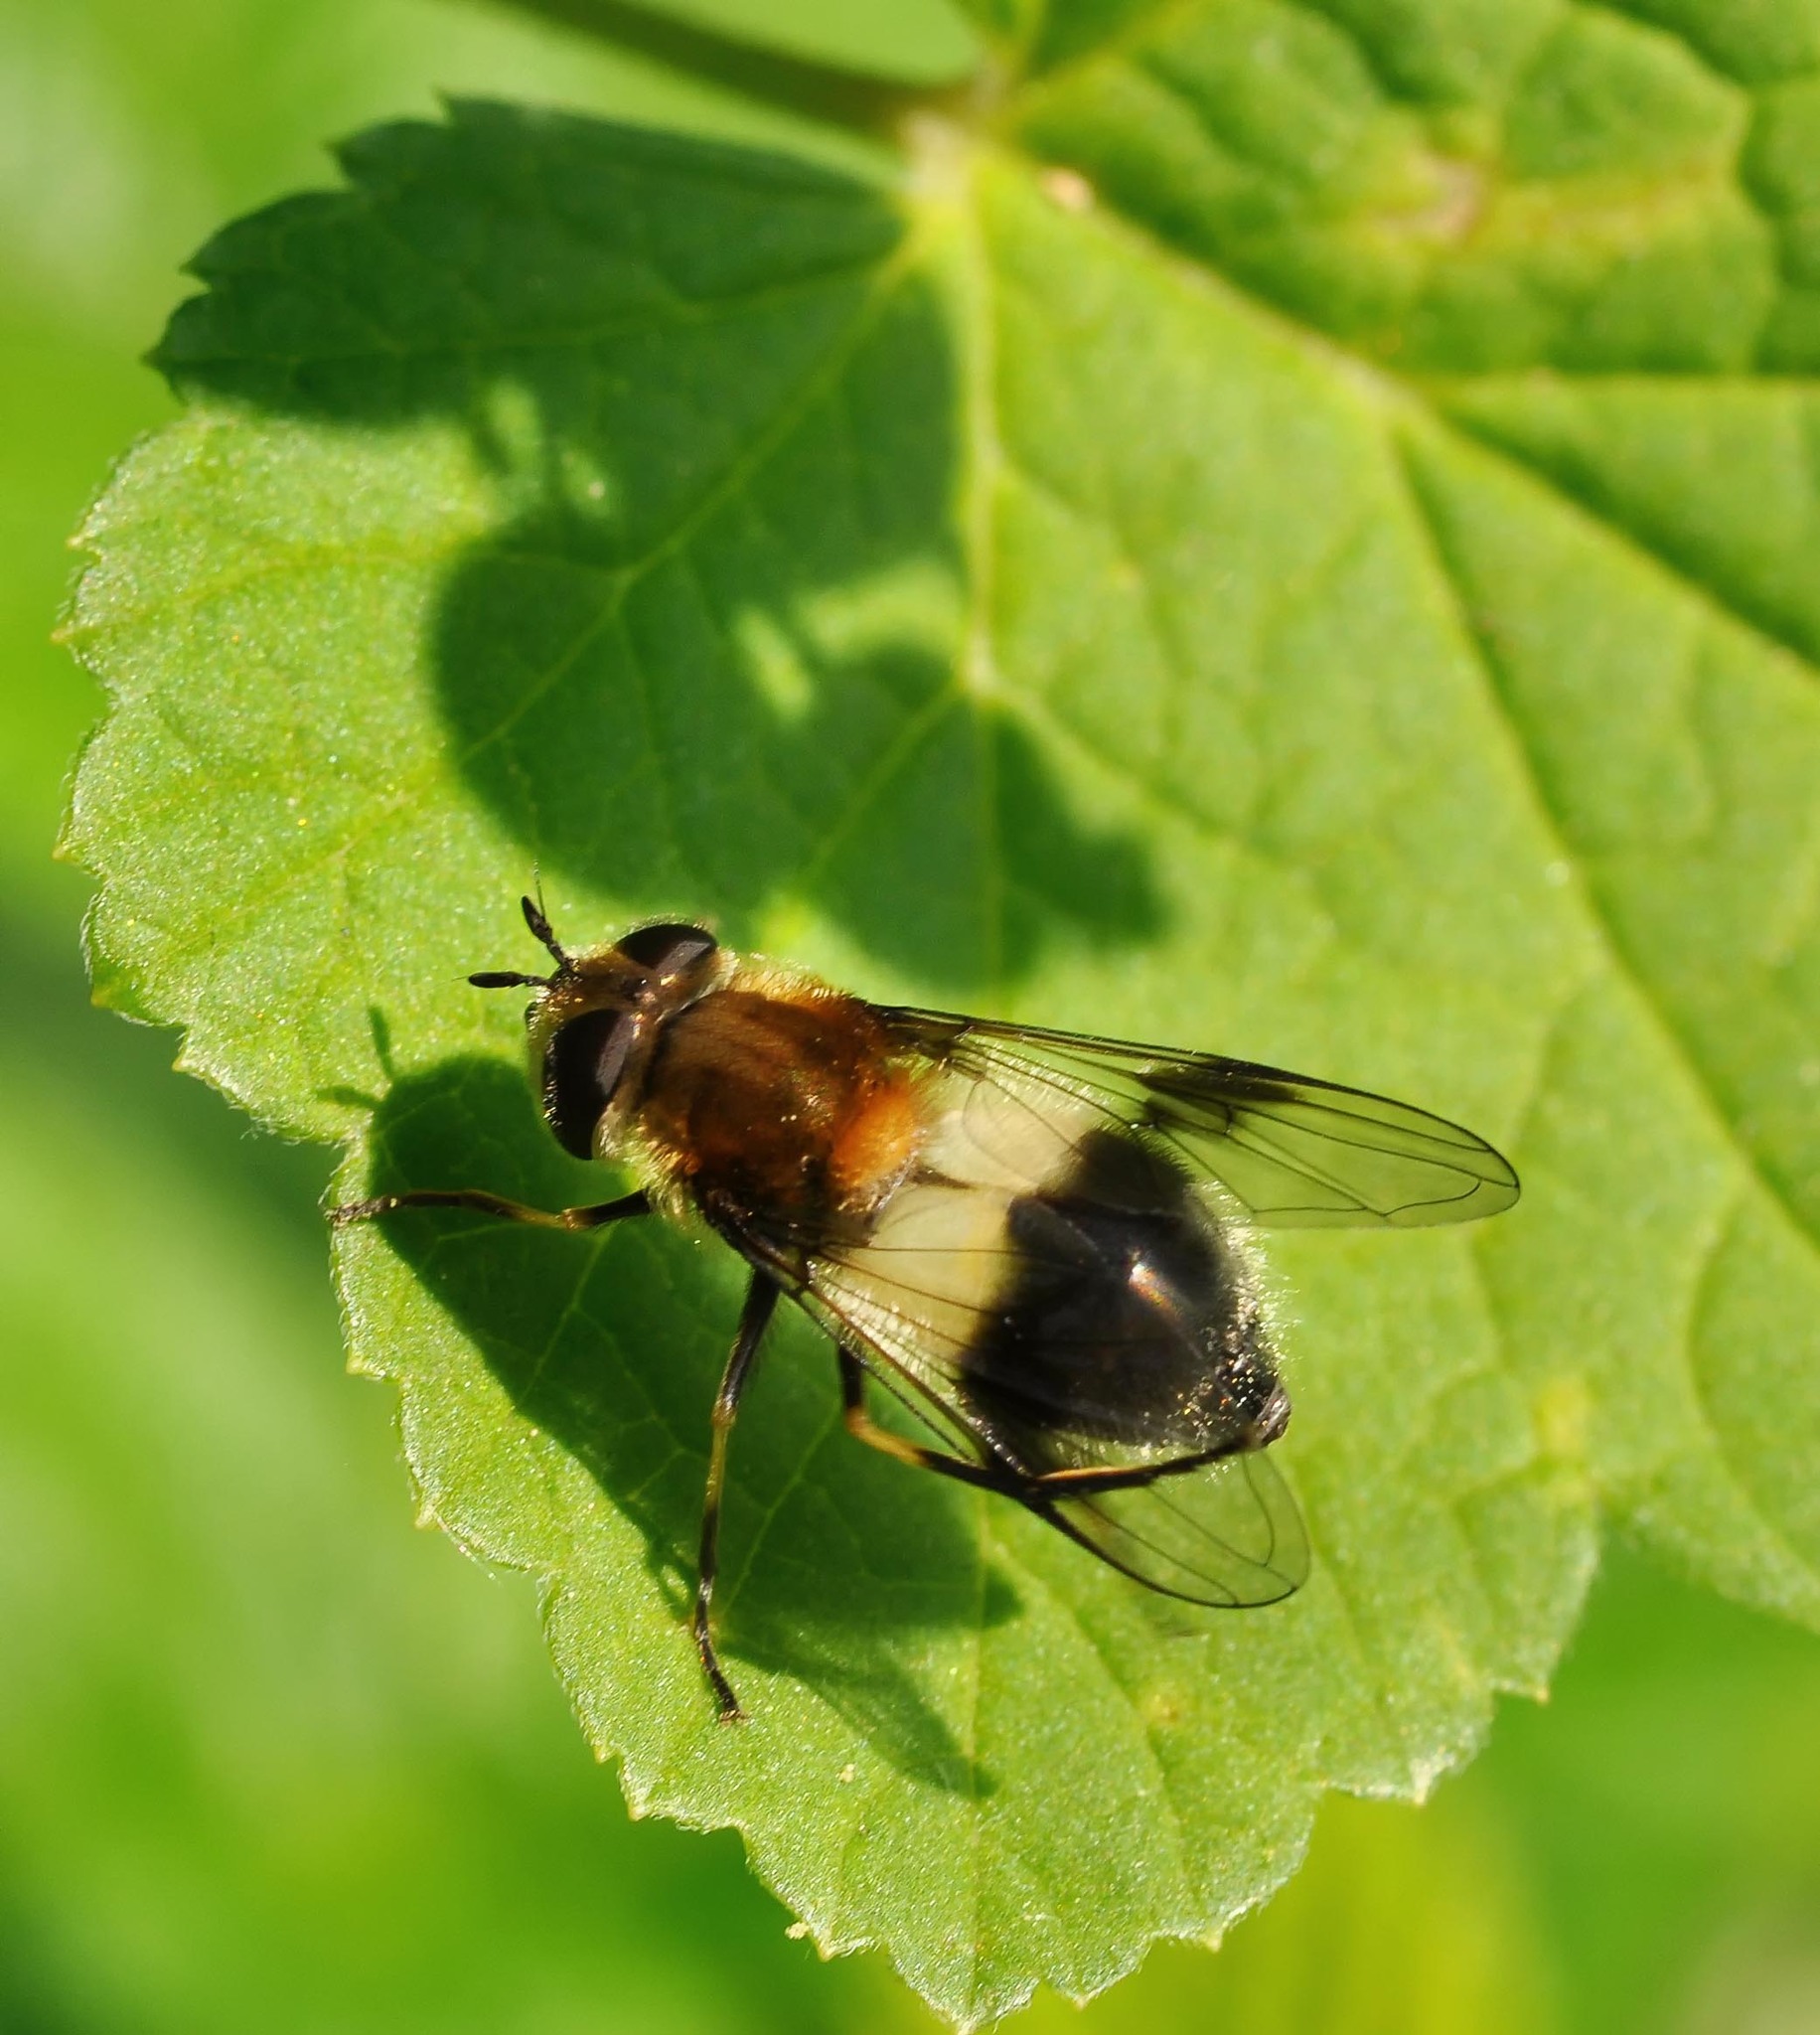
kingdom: Animalia
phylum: Arthropoda
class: Insecta
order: Diptera
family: Syrphidae
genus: Leucozona
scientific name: Leucozona lucorum
